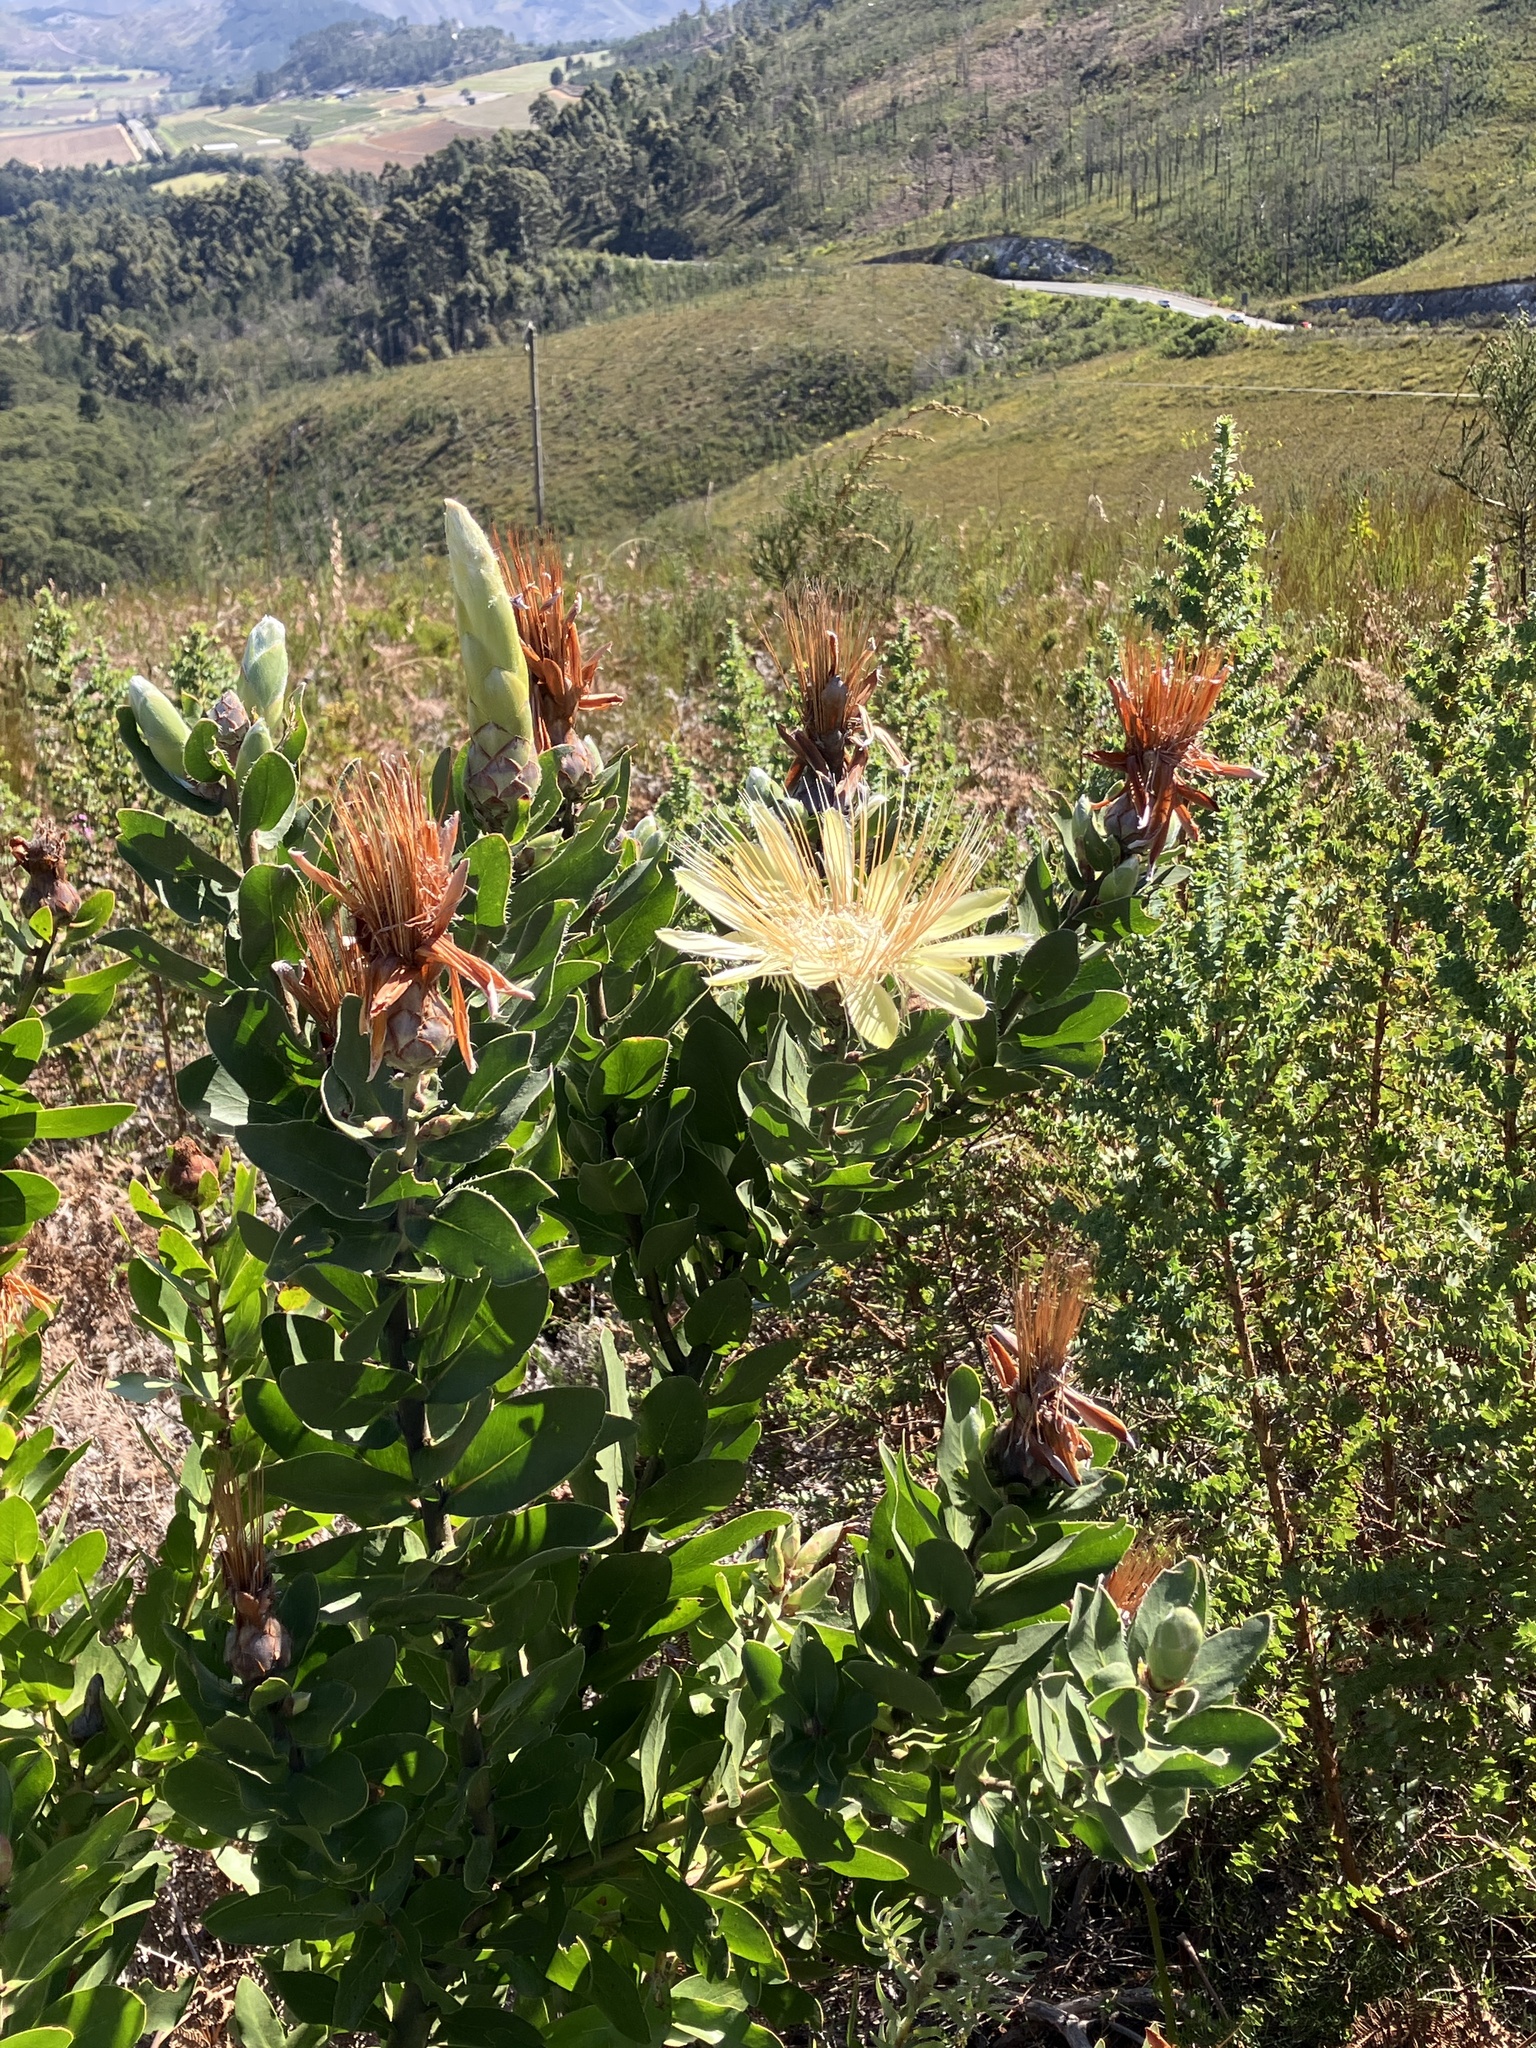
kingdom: Plantae
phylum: Tracheophyta
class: Magnoliopsida
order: Proteales
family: Proteaceae
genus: Protea
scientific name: Protea aurea
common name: Shuttlecock sugarbush
